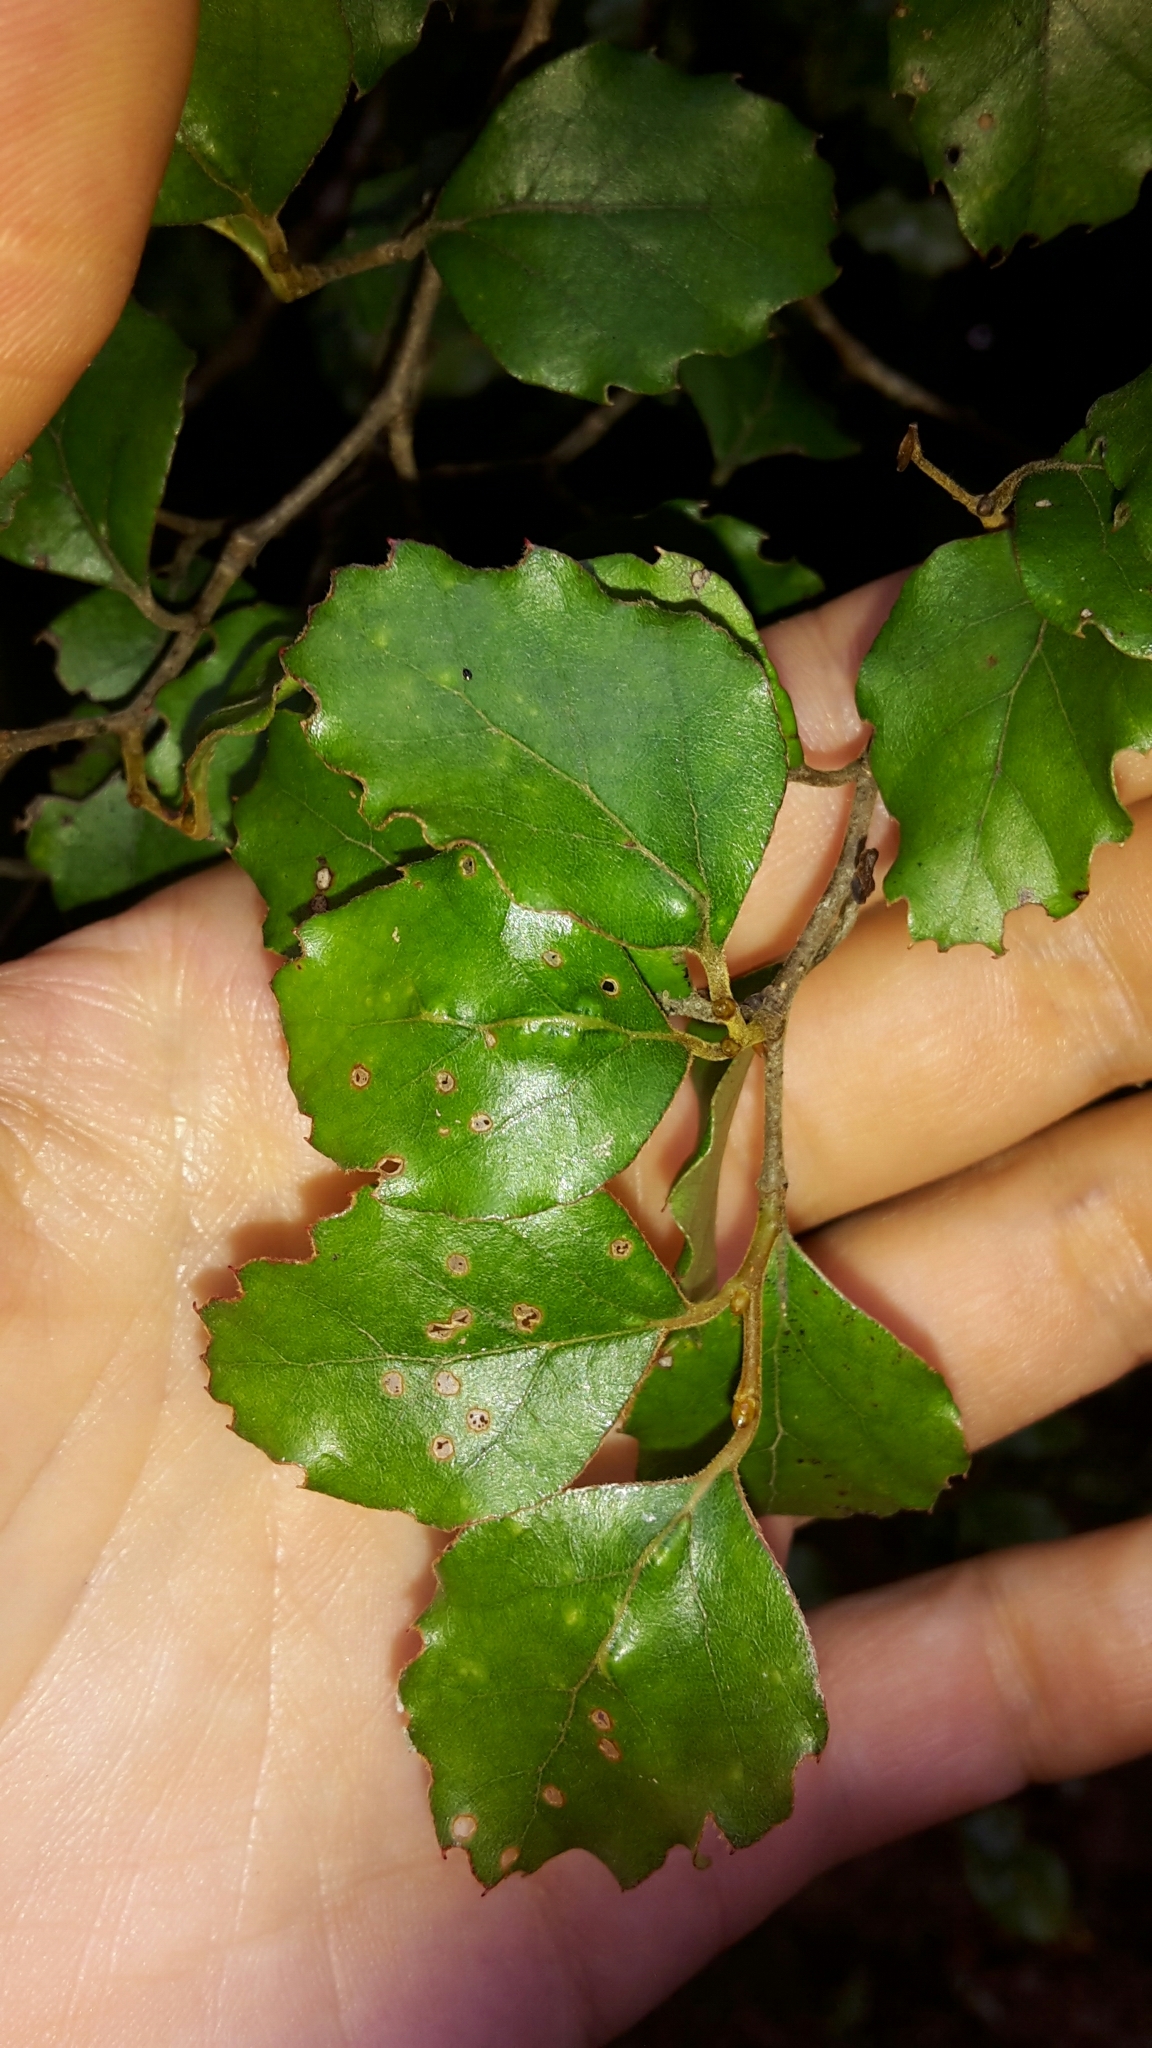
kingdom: Plantae
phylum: Tracheophyta
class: Magnoliopsida
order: Fagales
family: Nothofagaceae
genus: Nothofagus
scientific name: Nothofagus fusca
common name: Red beech
